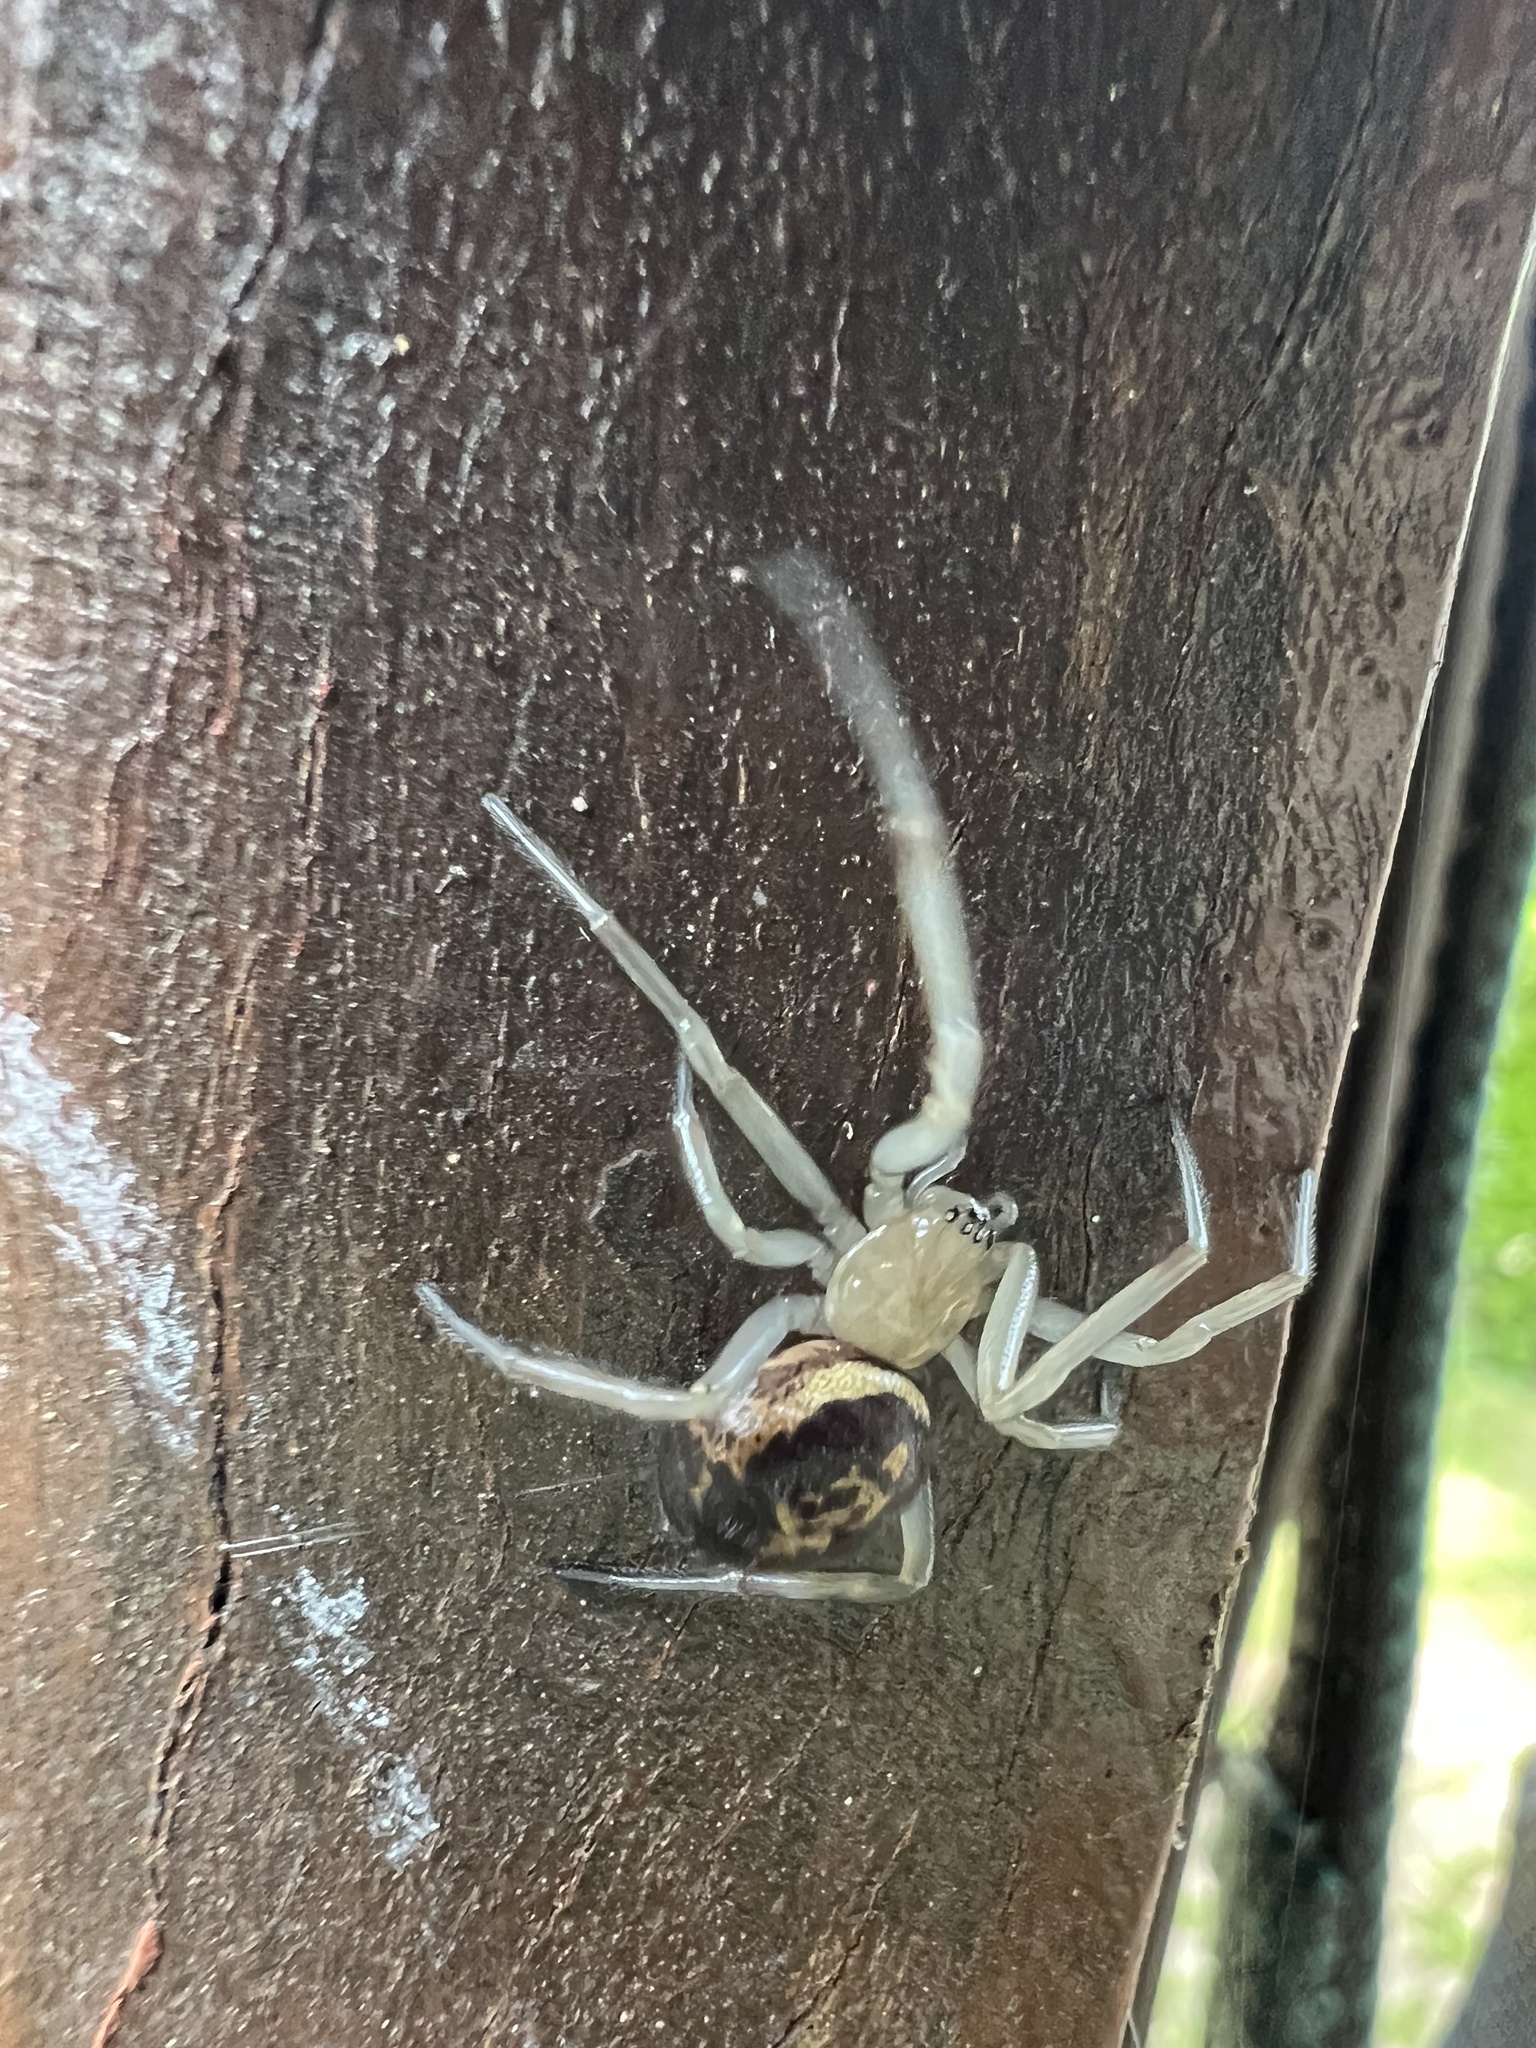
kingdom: Animalia
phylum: Arthropoda
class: Arachnida
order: Araneae
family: Theridiidae
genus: Steatoda
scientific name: Steatoda nobilis
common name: Cobweb weaver
